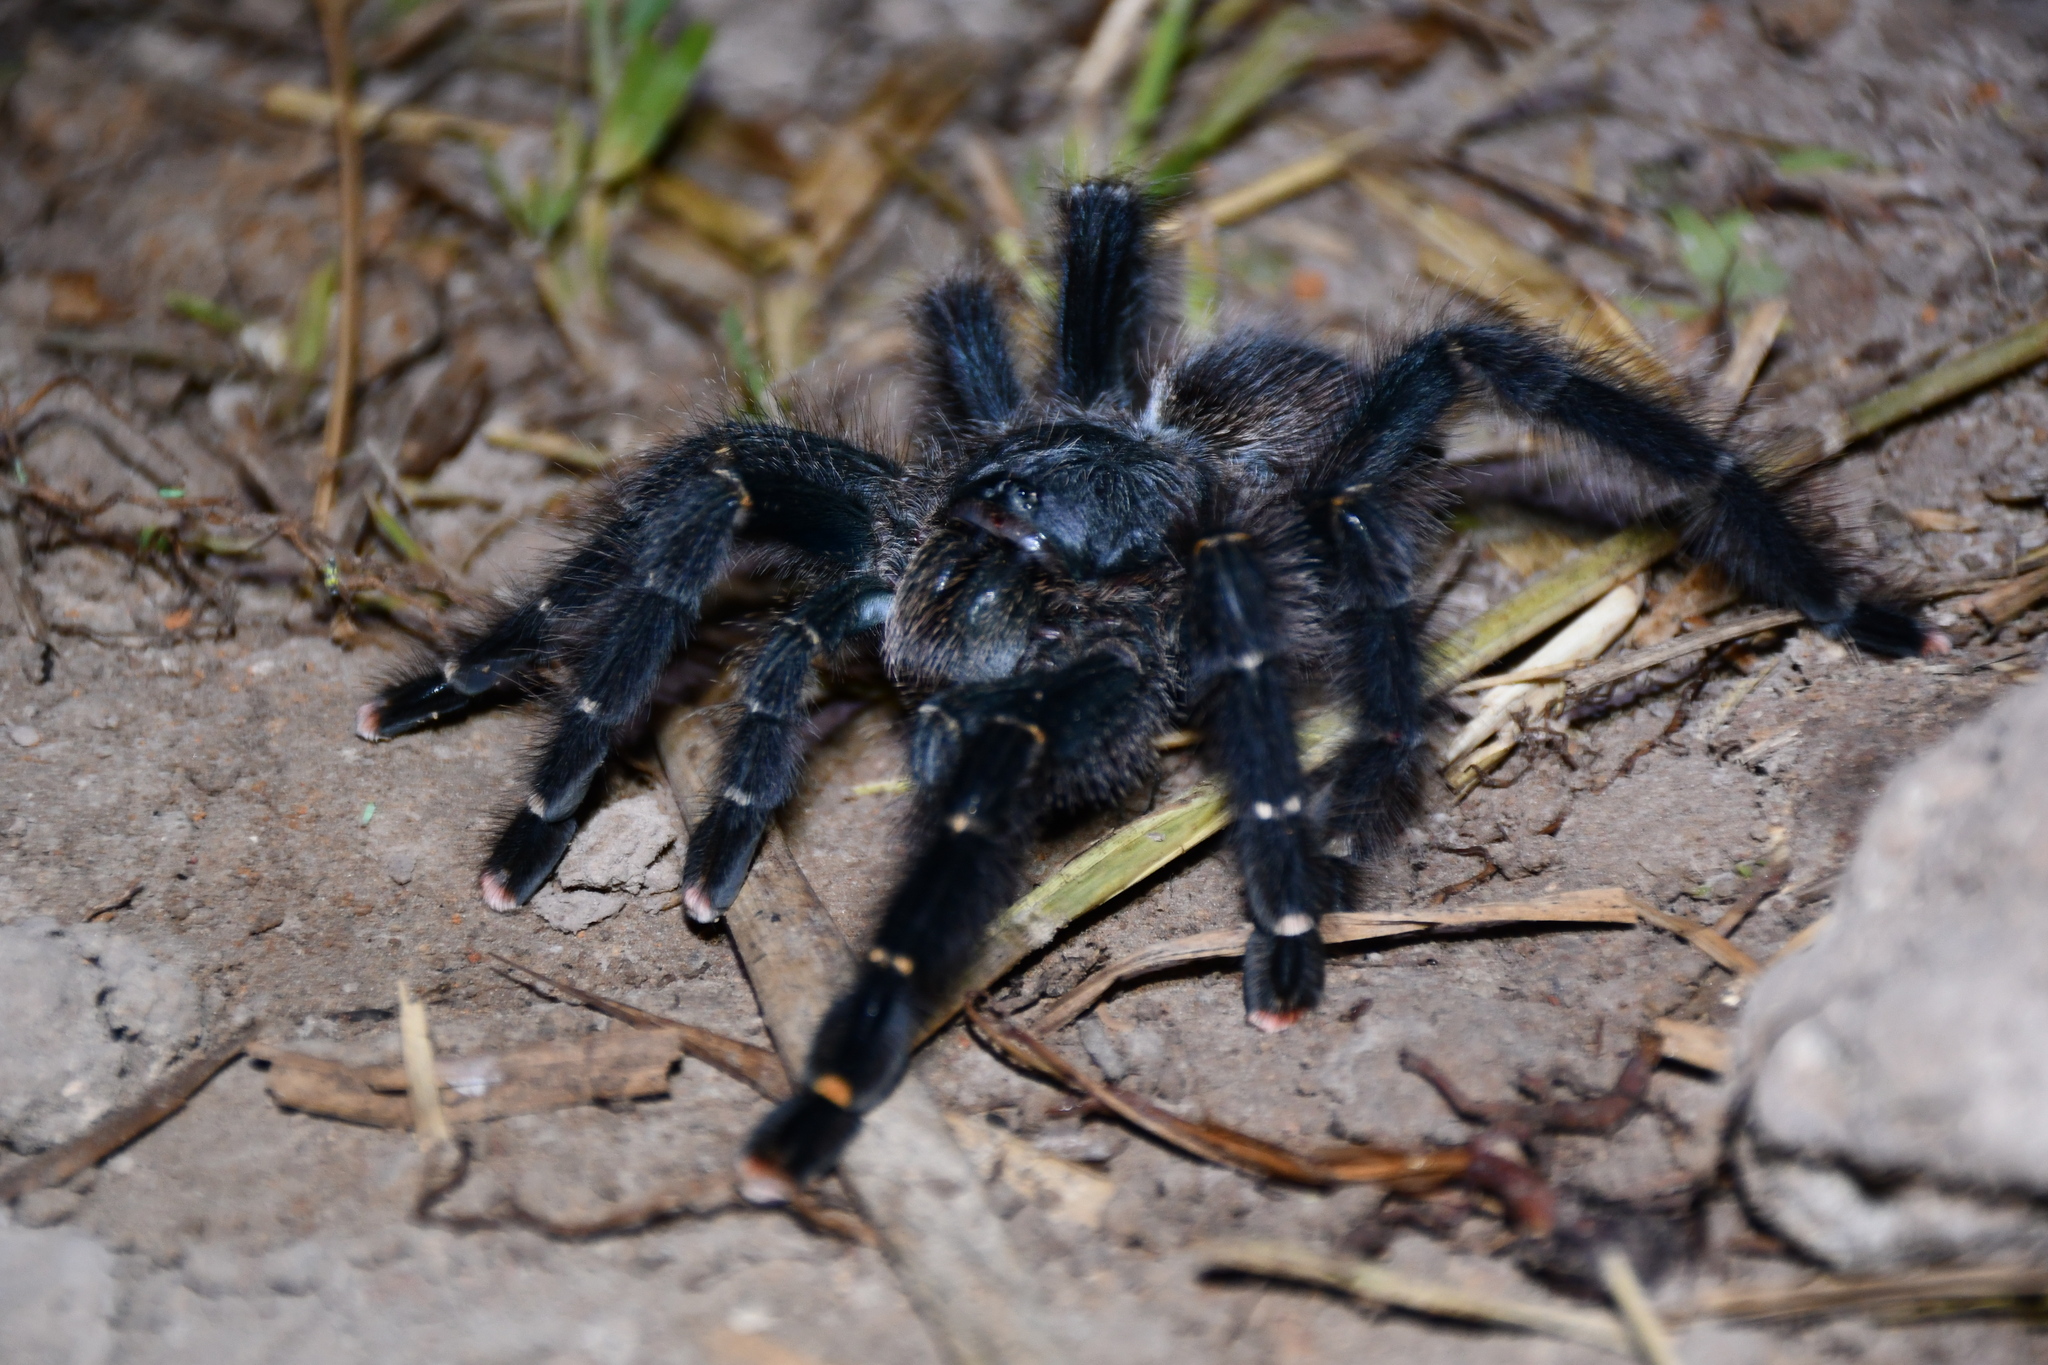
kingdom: Animalia
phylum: Arthropoda
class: Arachnida
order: Araneae
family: Theraphosidae
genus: Avicularia
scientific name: Avicularia rufa
